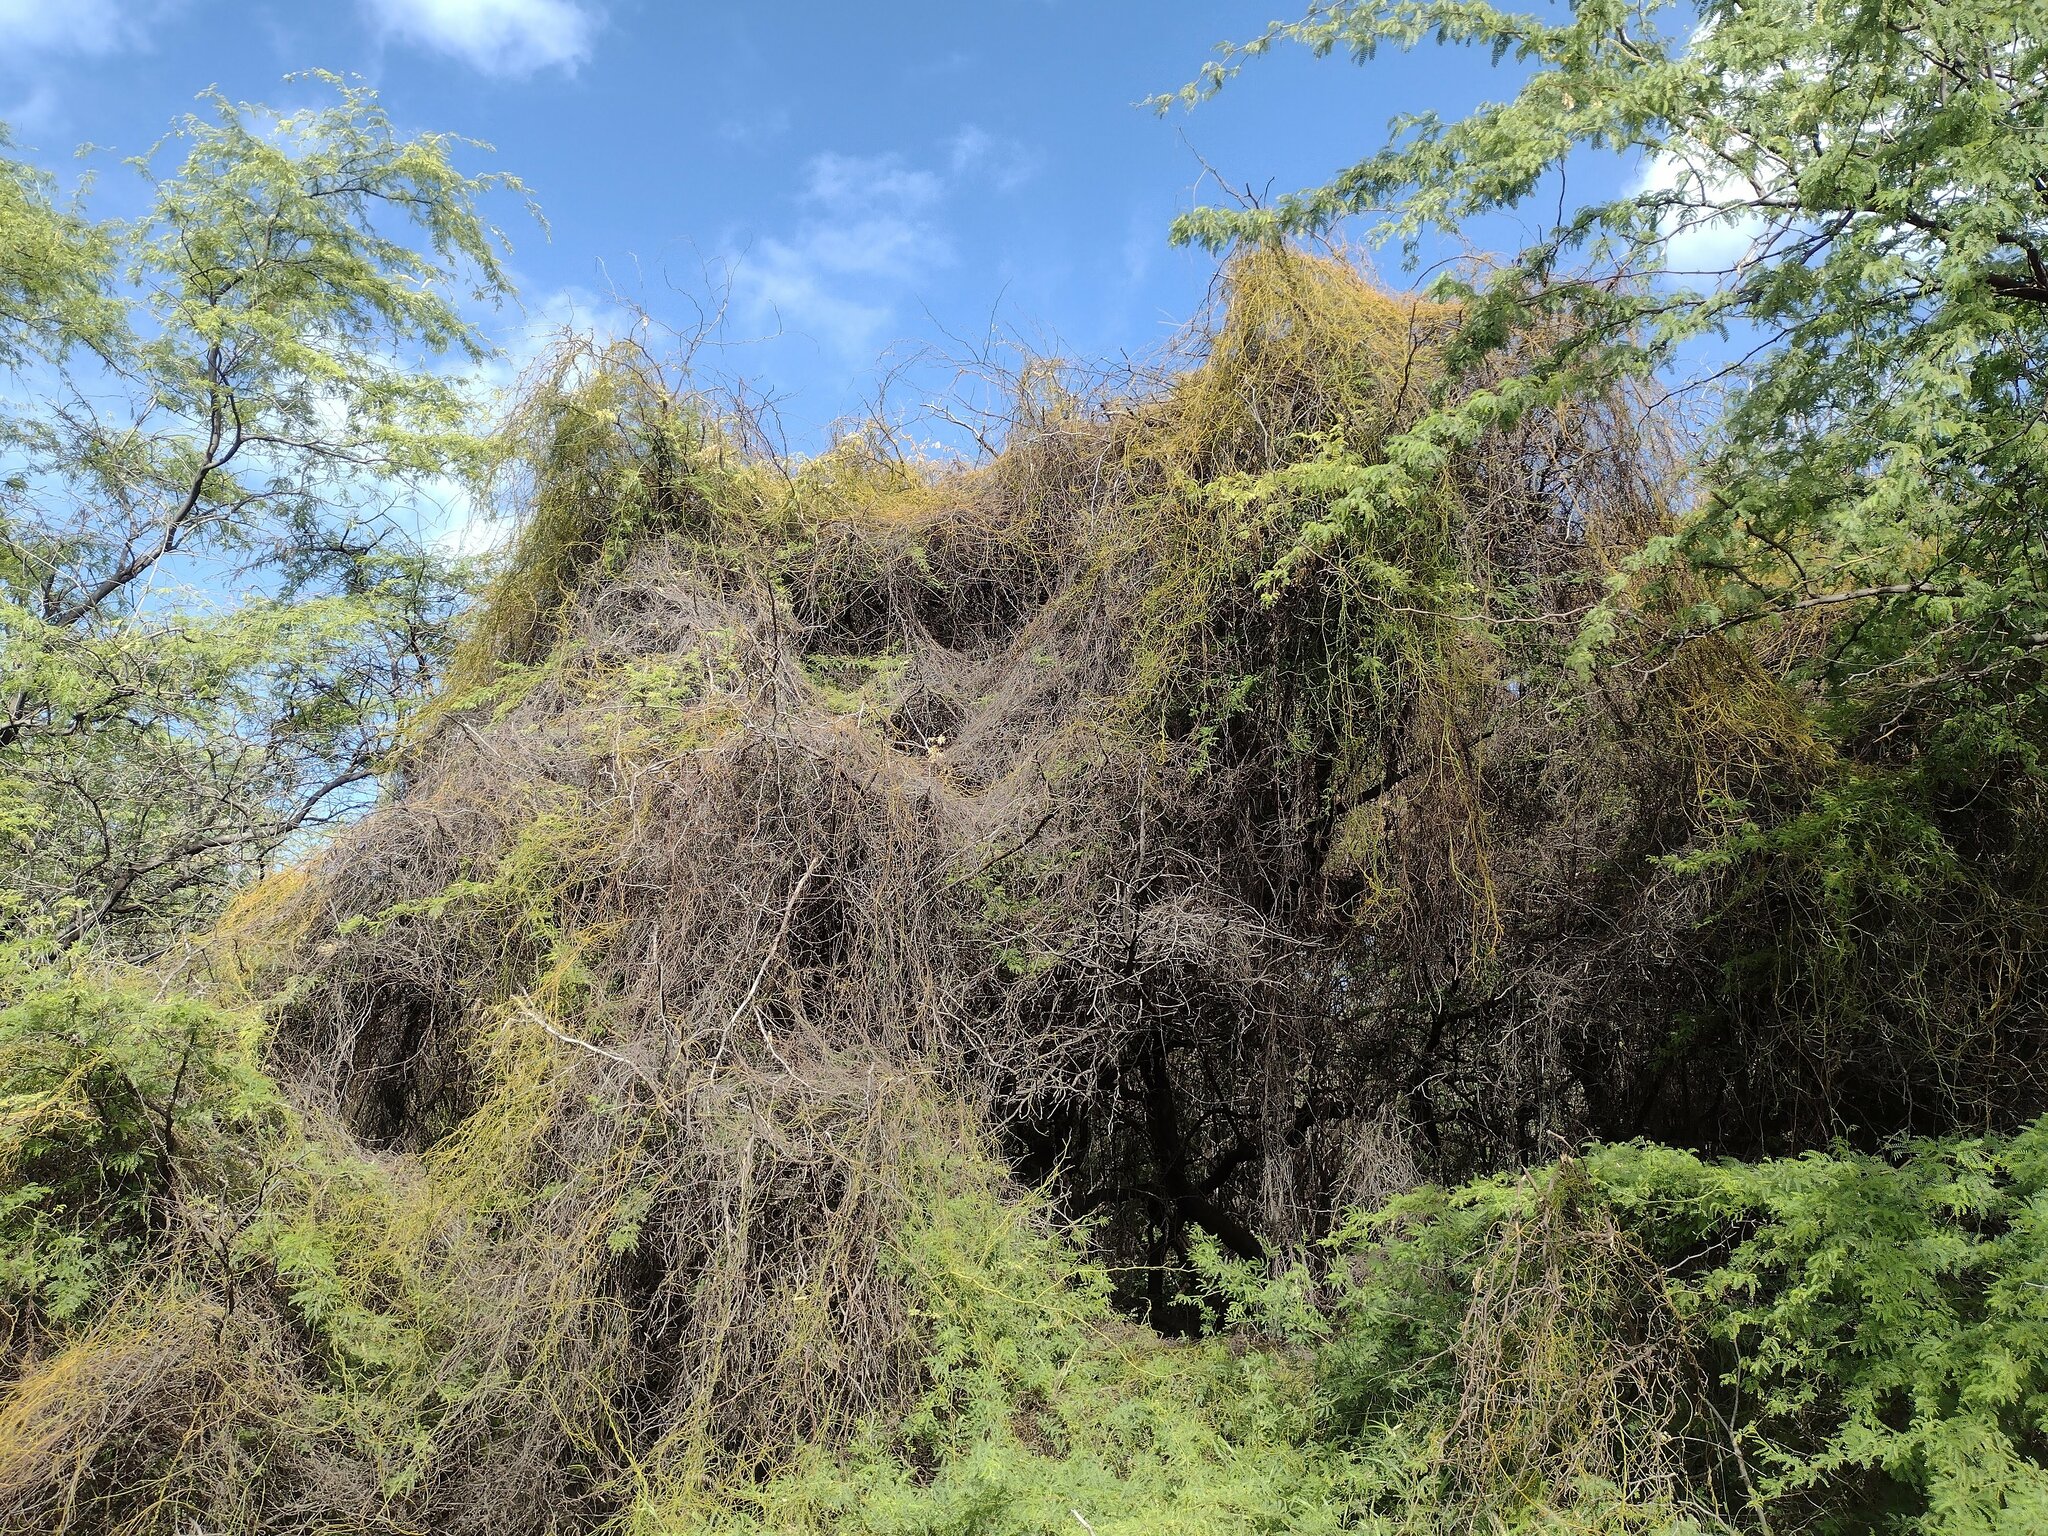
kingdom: Plantae
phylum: Tracheophyta
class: Magnoliopsida
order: Laurales
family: Lauraceae
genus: Cassytha
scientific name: Cassytha filiformis
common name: Dodder-laurel
